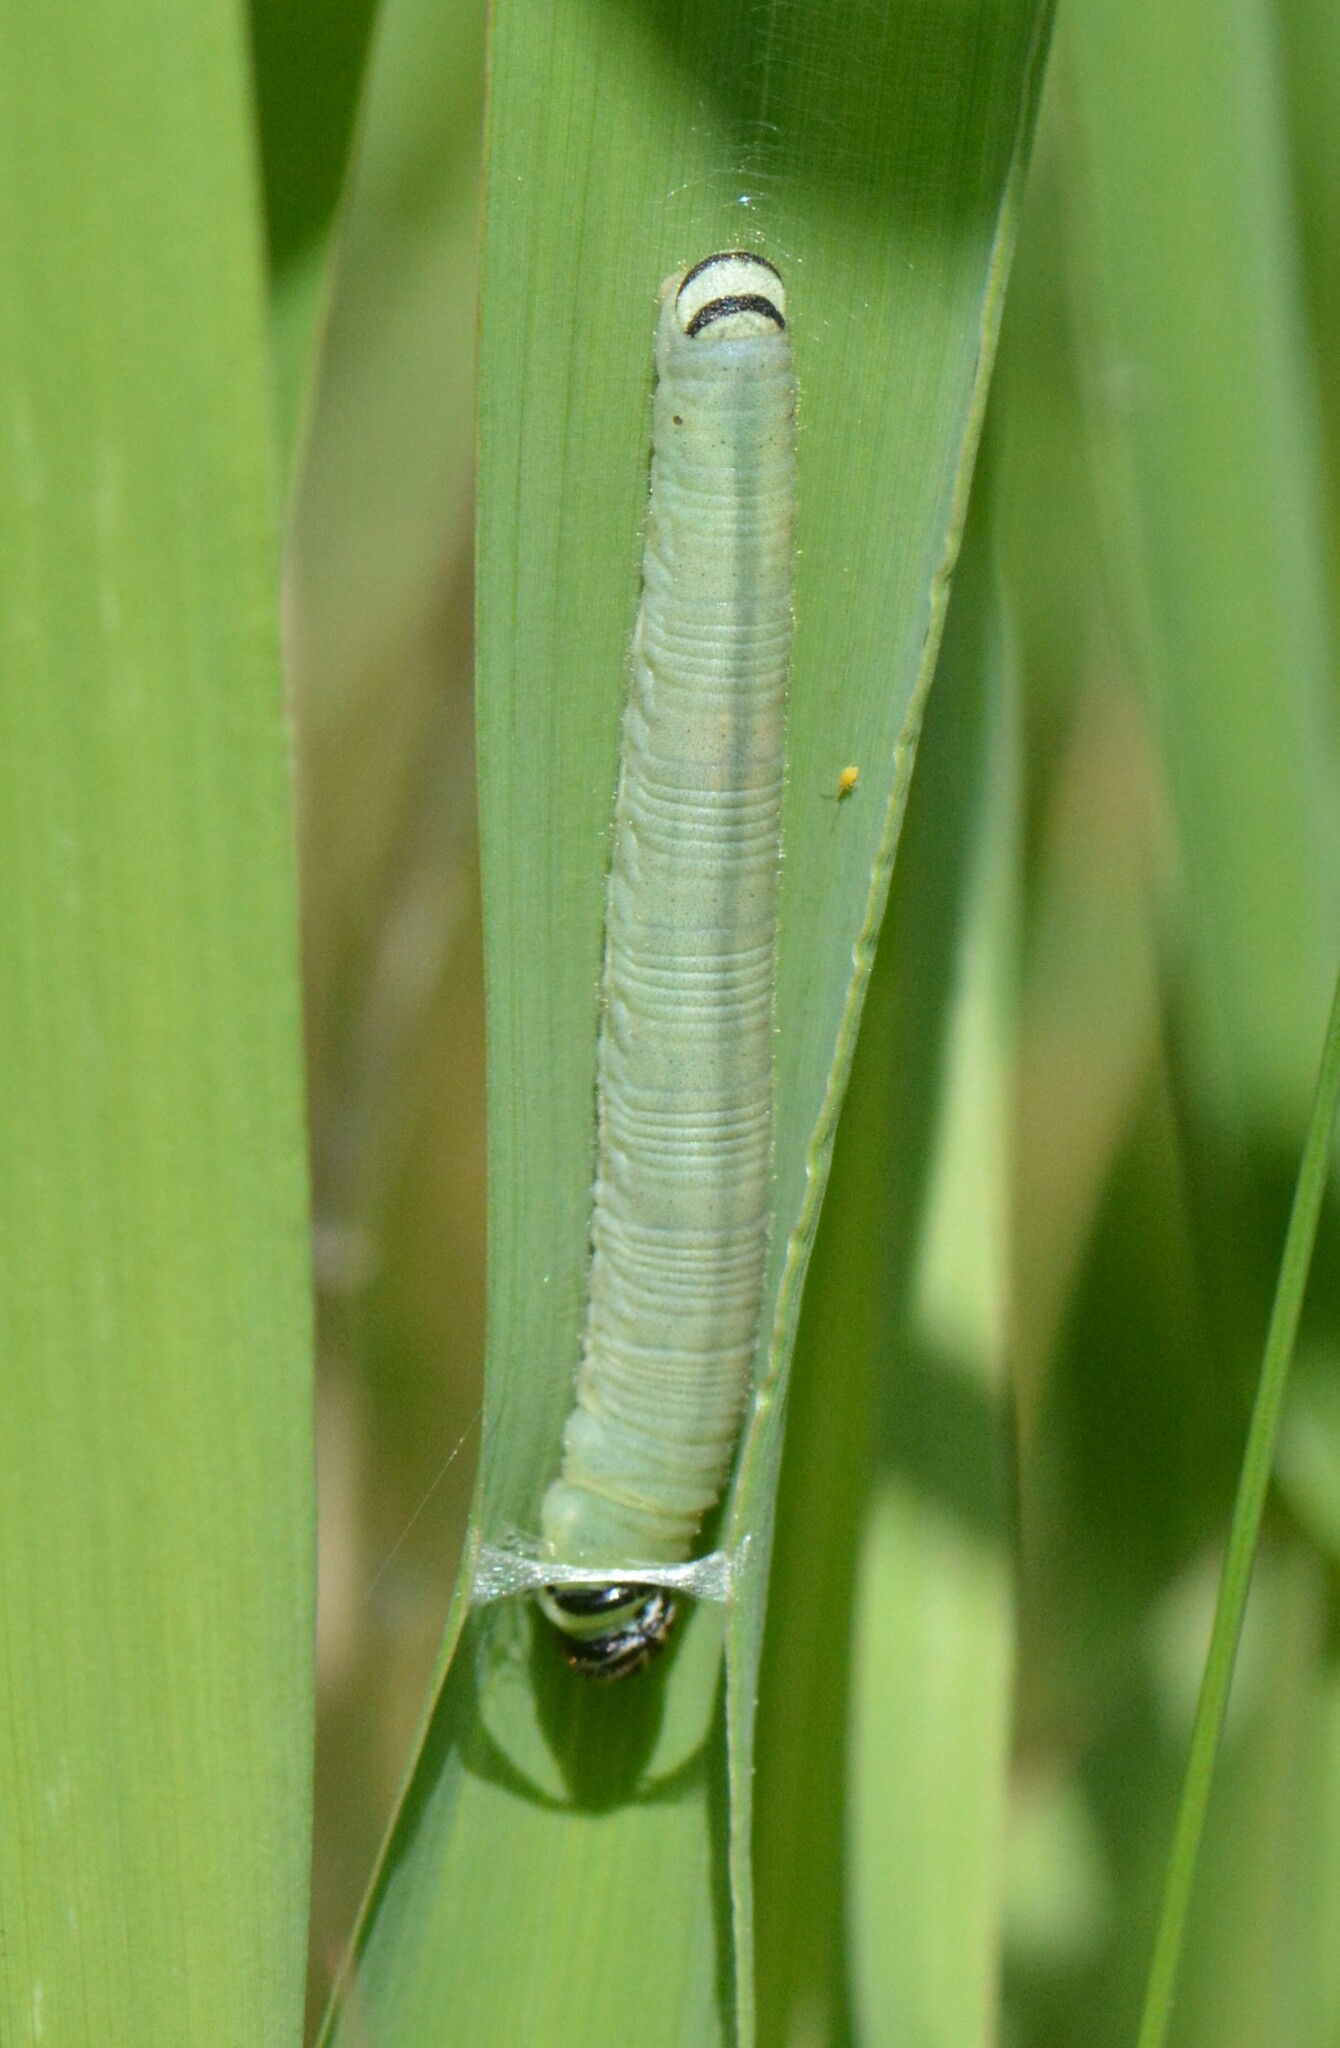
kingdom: Animalia
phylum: Arthropoda
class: Insecta
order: Lepidoptera
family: Hesperiidae
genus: Atrytone
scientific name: Atrytone delaware
